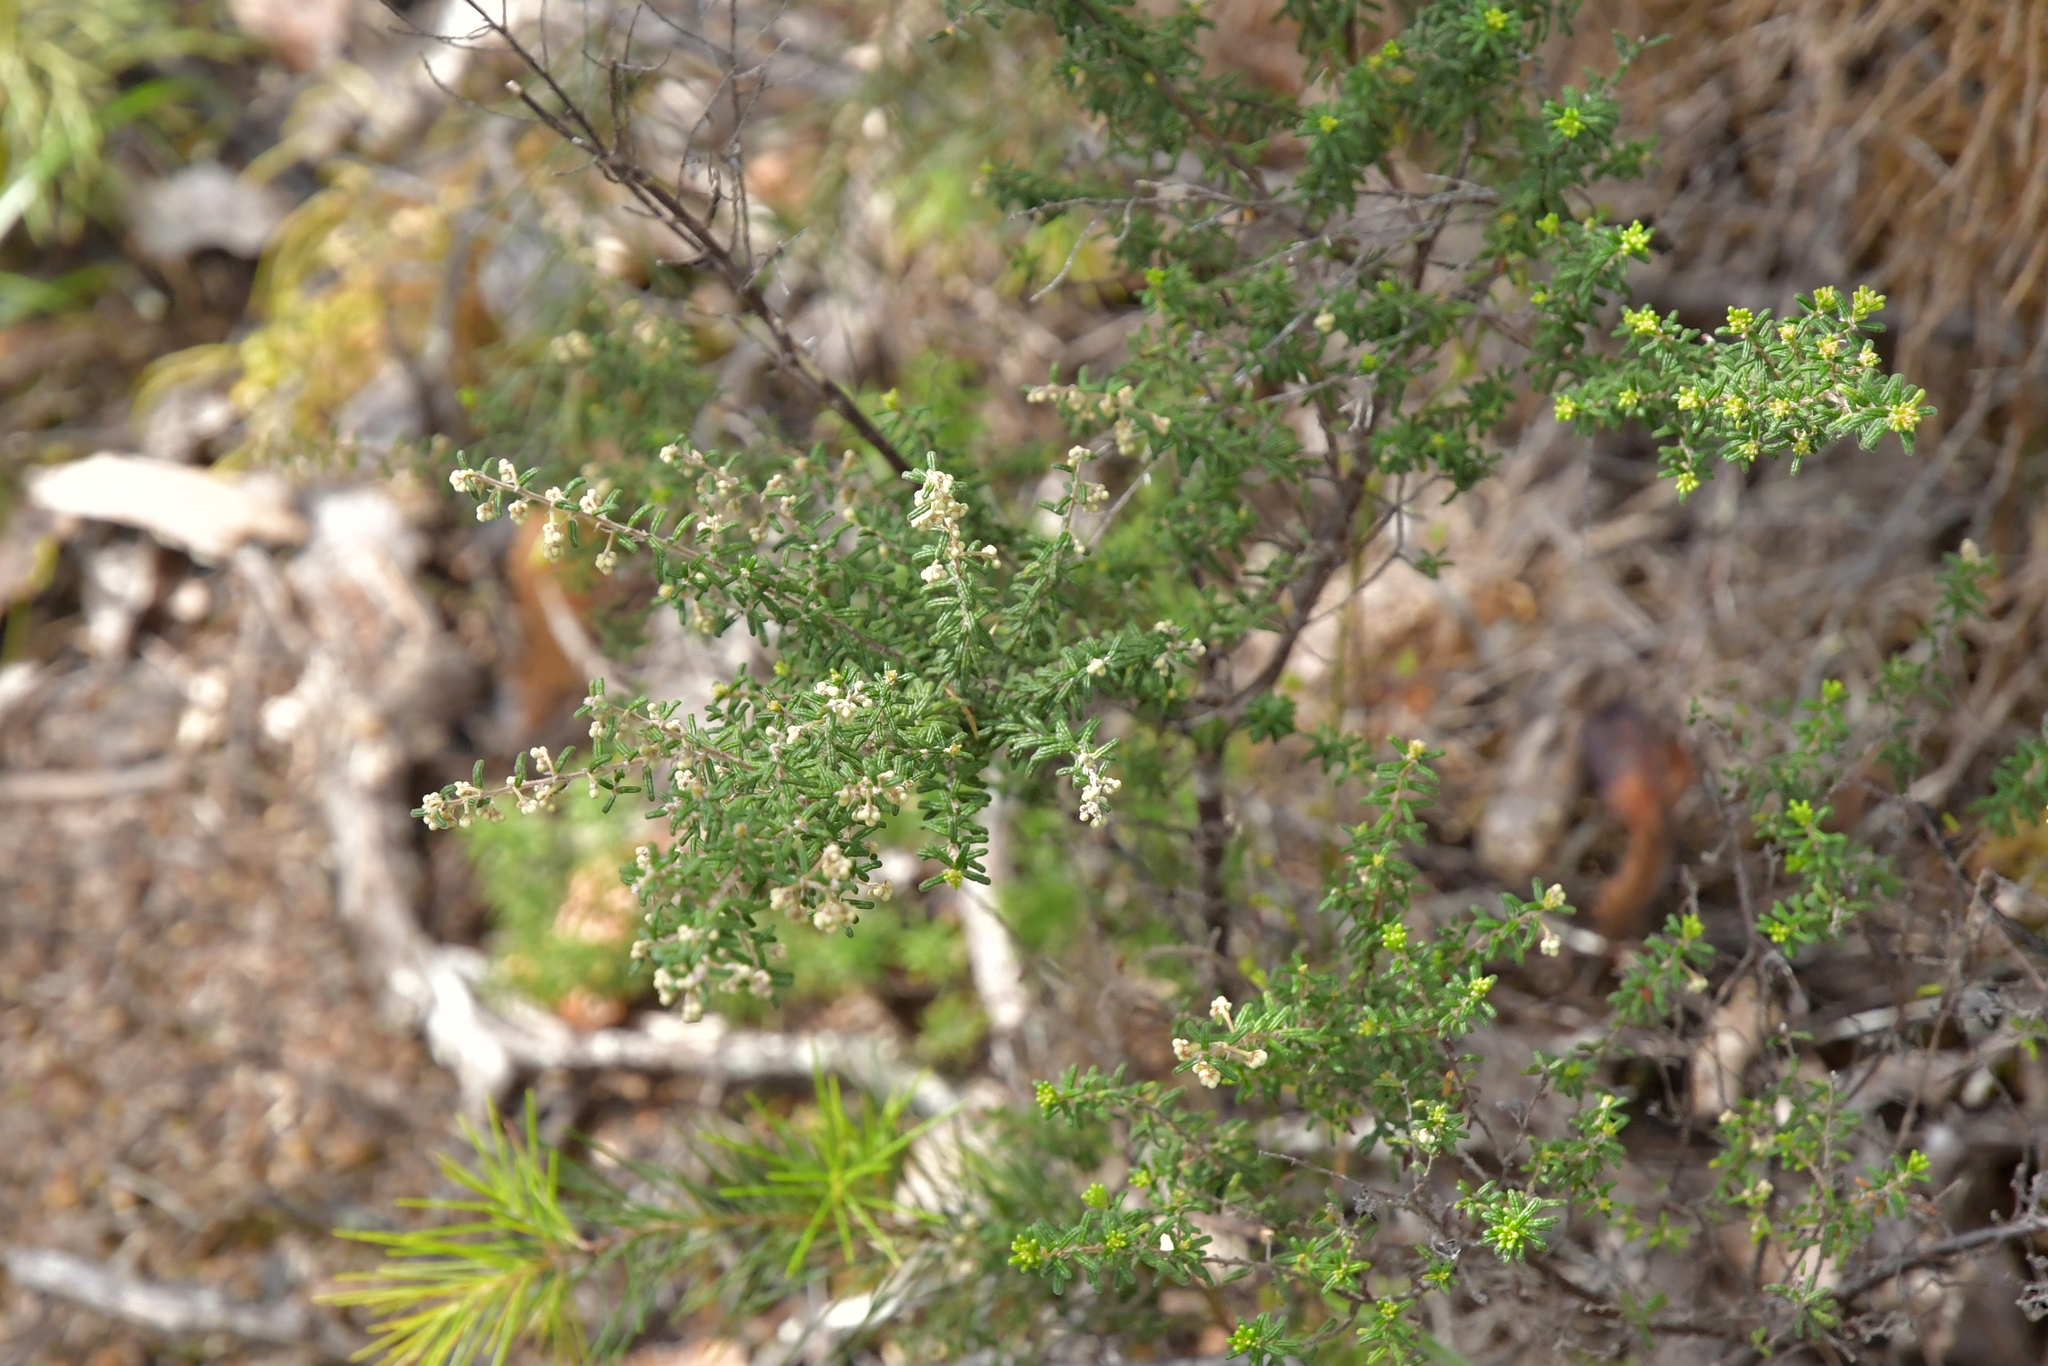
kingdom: Plantae
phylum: Tracheophyta
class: Magnoliopsida
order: Rosales
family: Rhamnaceae
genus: Pomaderris
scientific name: Pomaderris amoena
